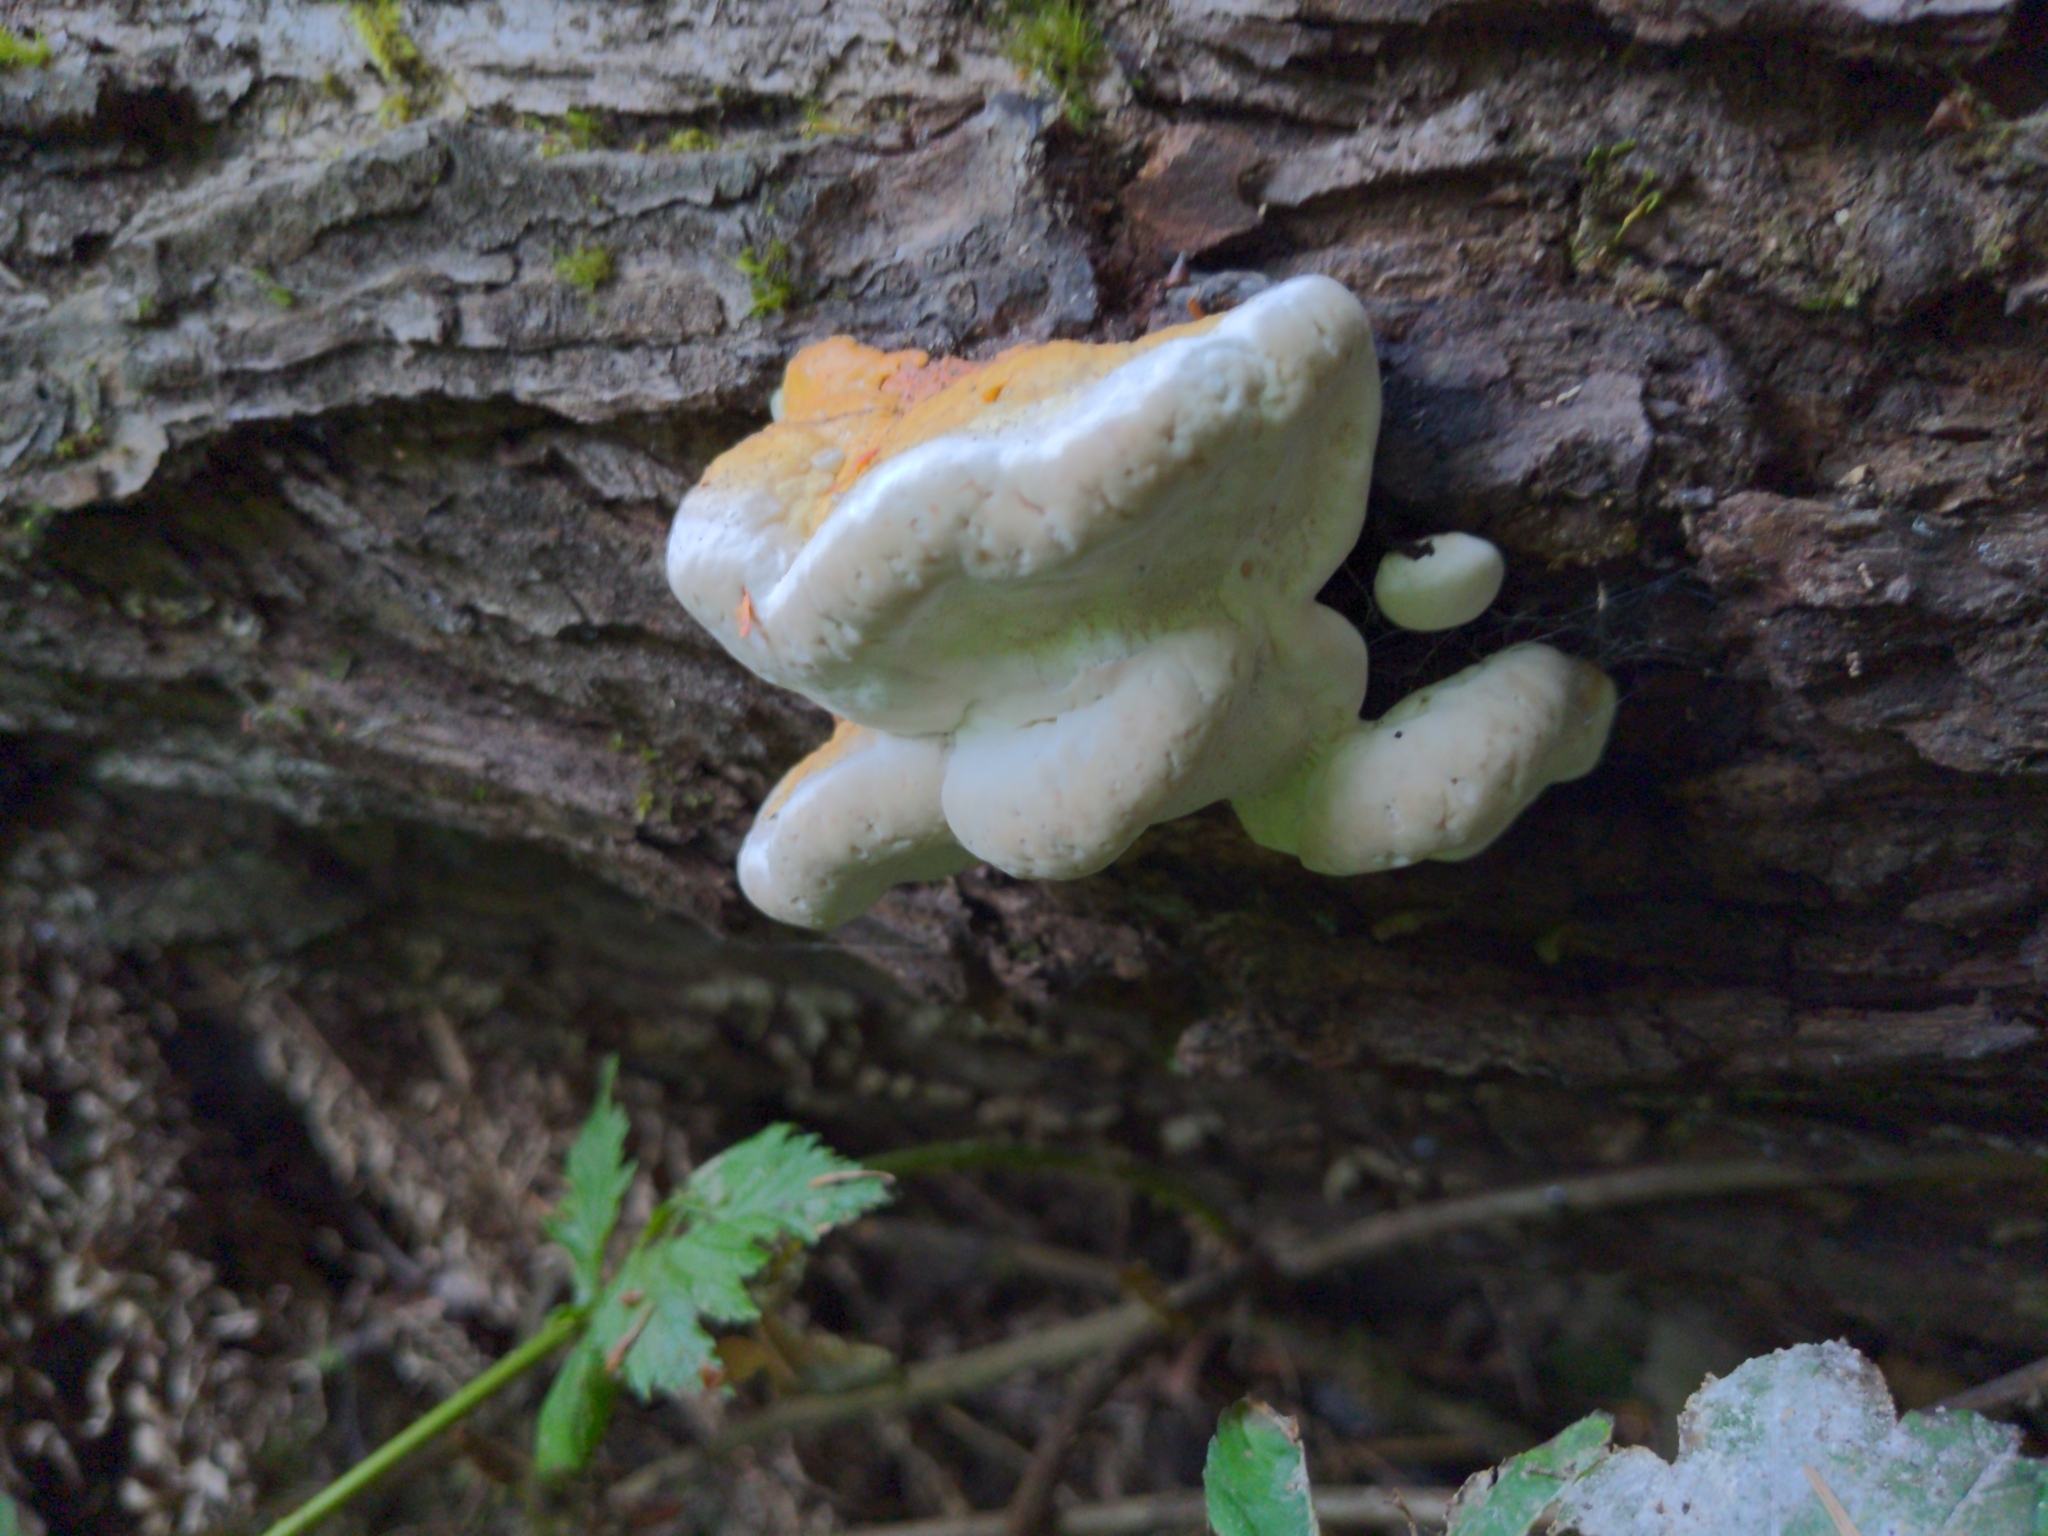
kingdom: Fungi
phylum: Basidiomycota
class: Agaricomycetes
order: Polyporales
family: Fomitopsidaceae
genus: Fomitopsis
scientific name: Fomitopsis mounceae
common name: Northern red belt
